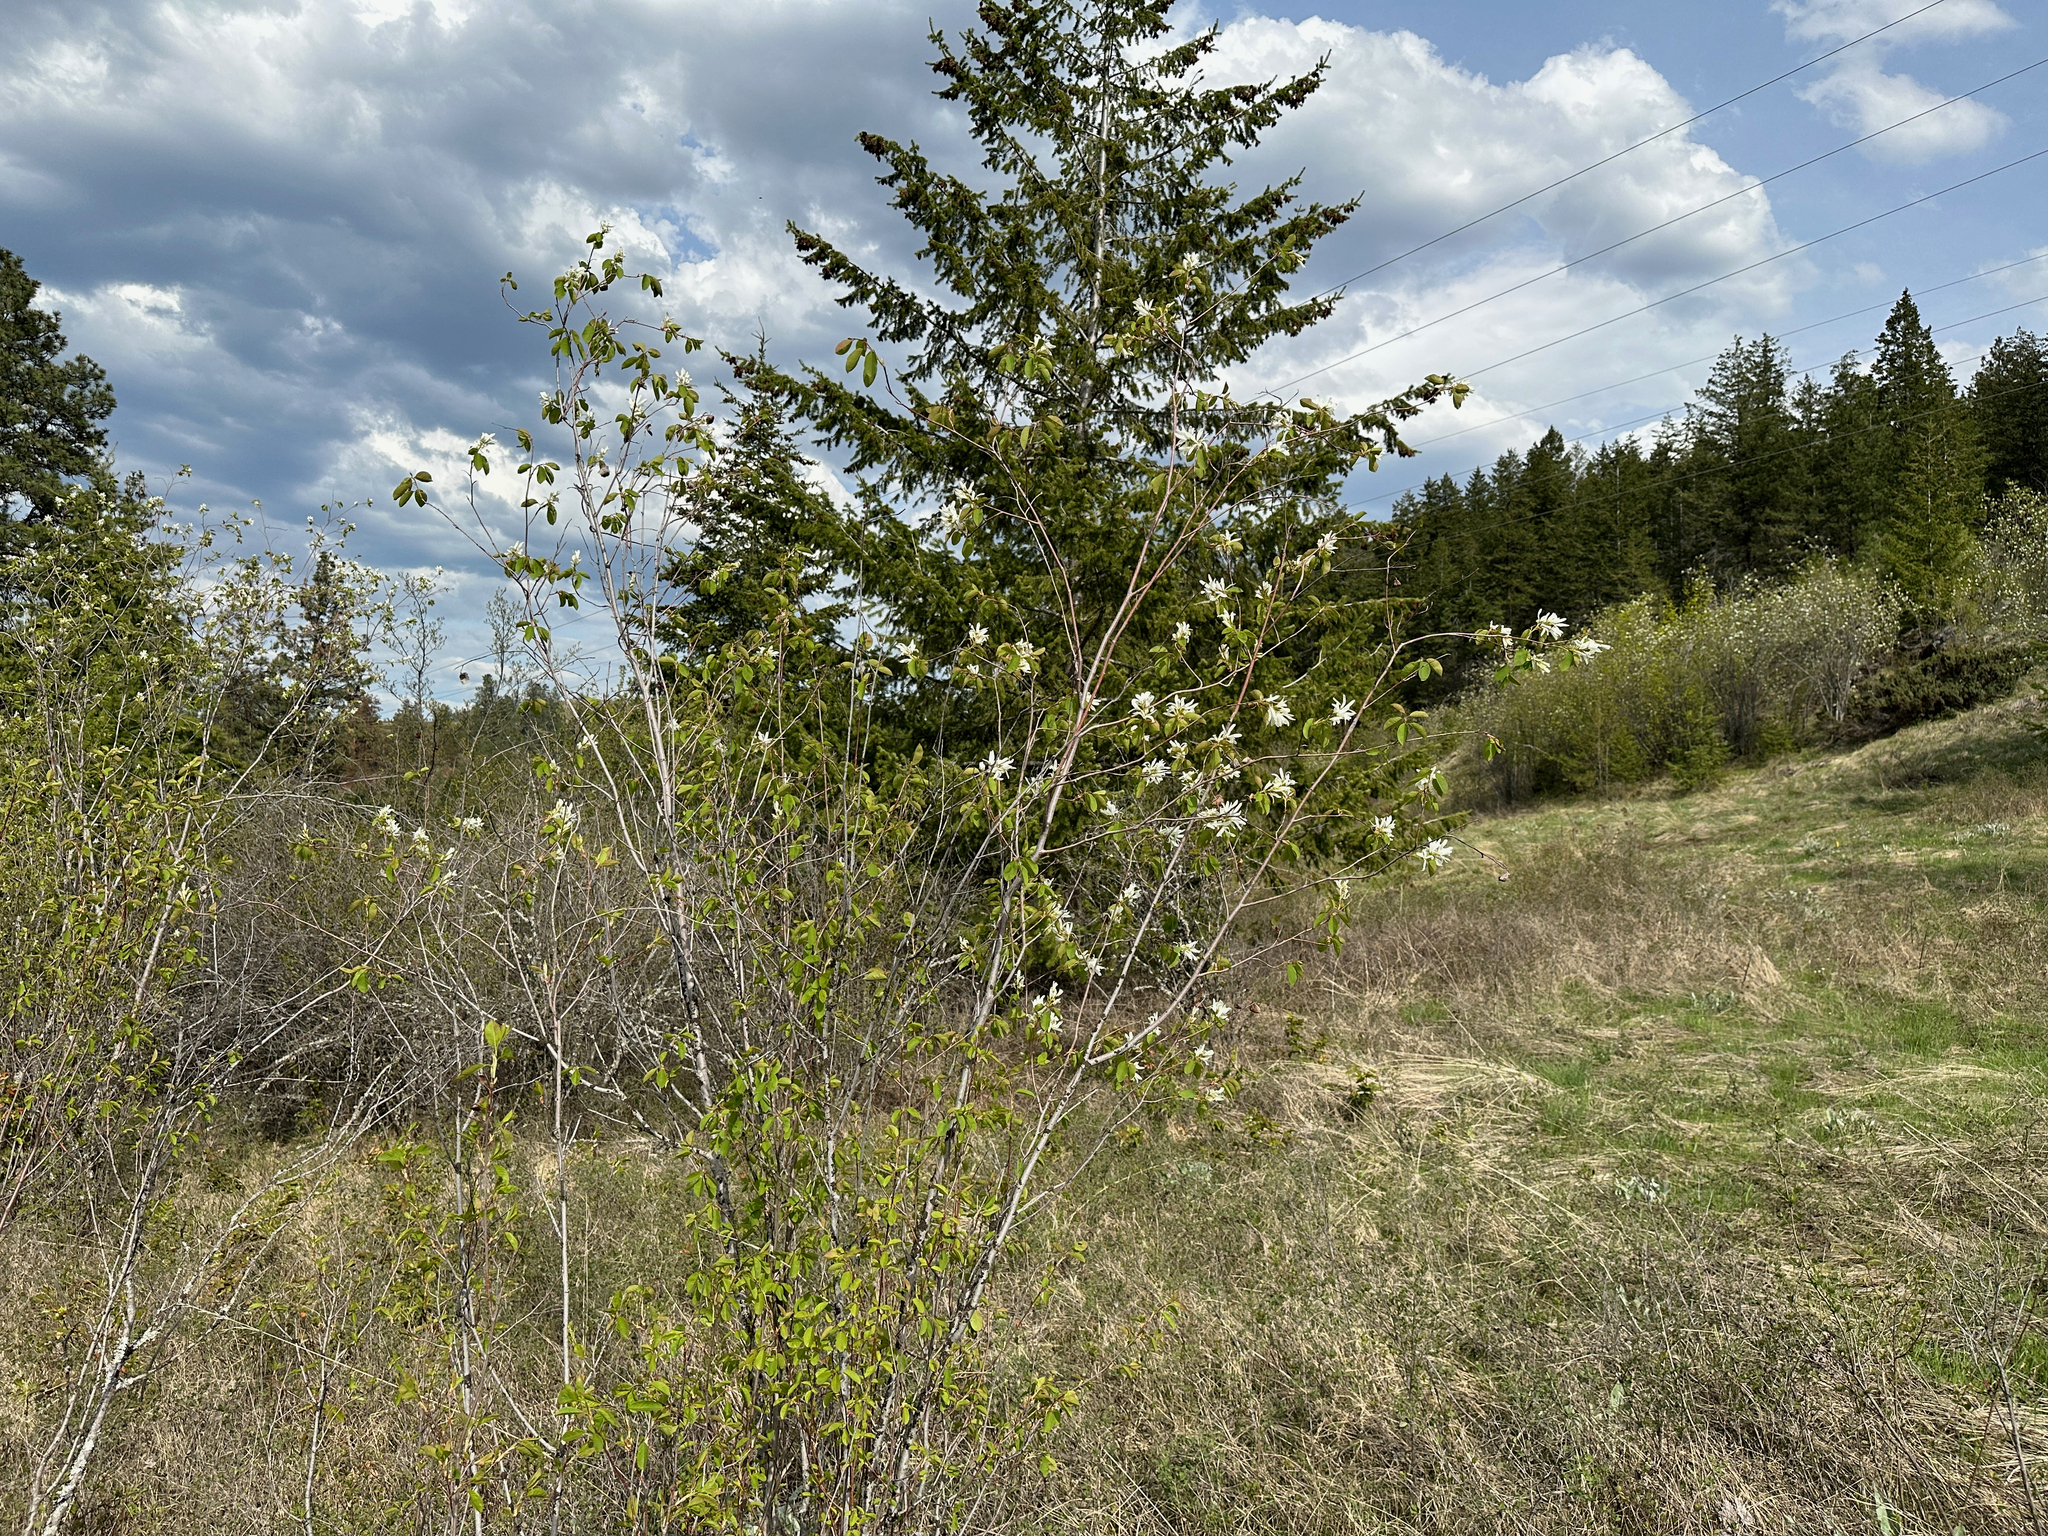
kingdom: Plantae
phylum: Tracheophyta
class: Magnoliopsida
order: Rosales
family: Rosaceae
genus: Amelanchier
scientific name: Amelanchier alnifolia
